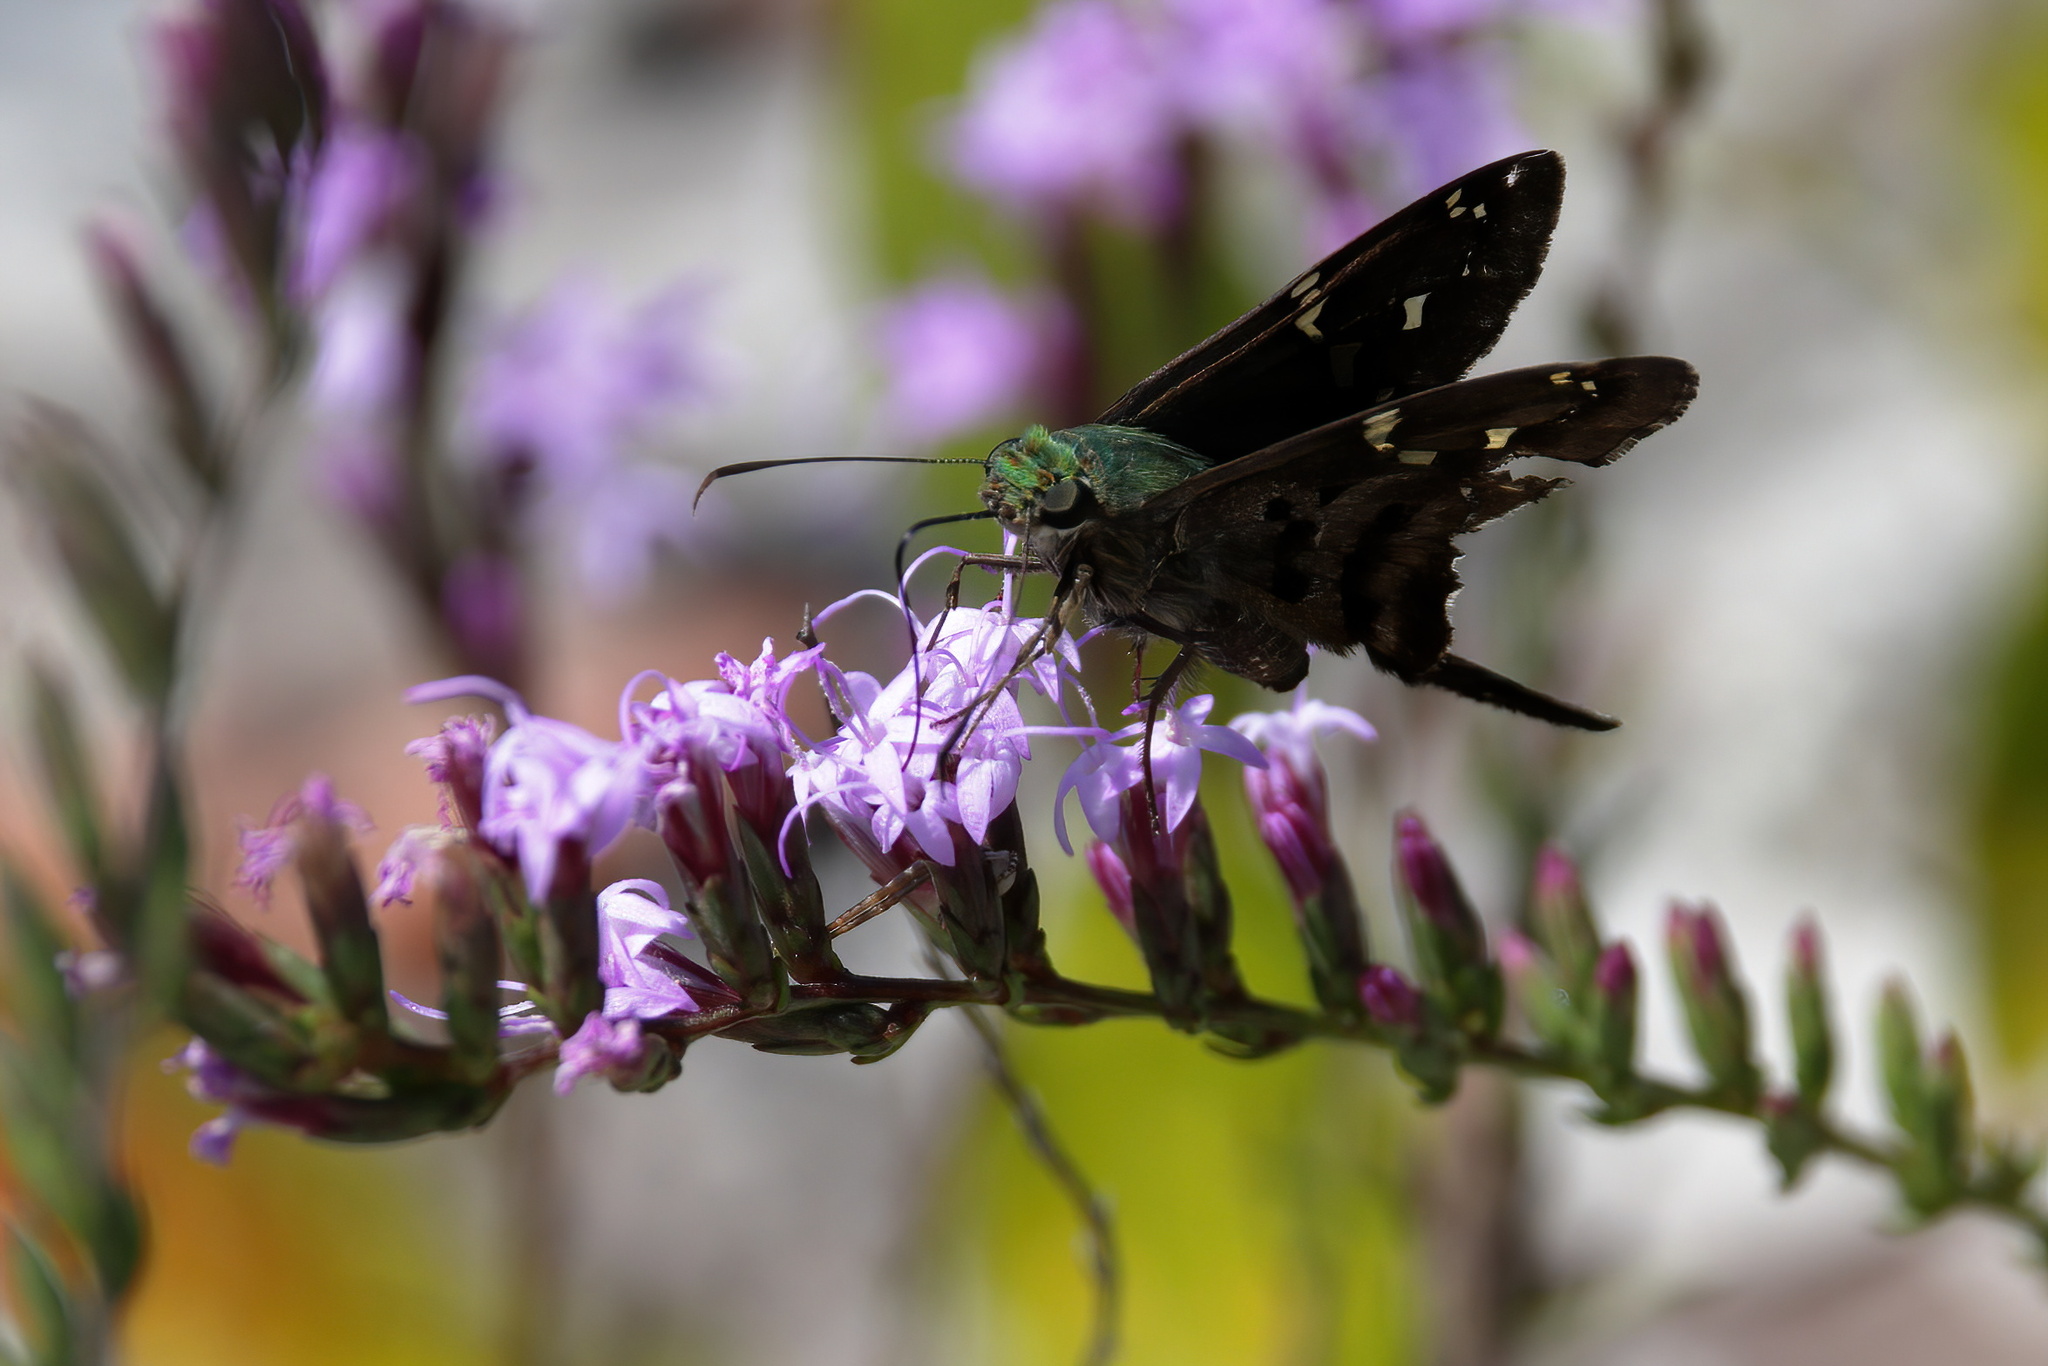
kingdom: Animalia
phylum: Arthropoda
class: Insecta
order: Lepidoptera
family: Hesperiidae
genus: Urbanus
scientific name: Urbanus proteus
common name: Long-tailed skipper
